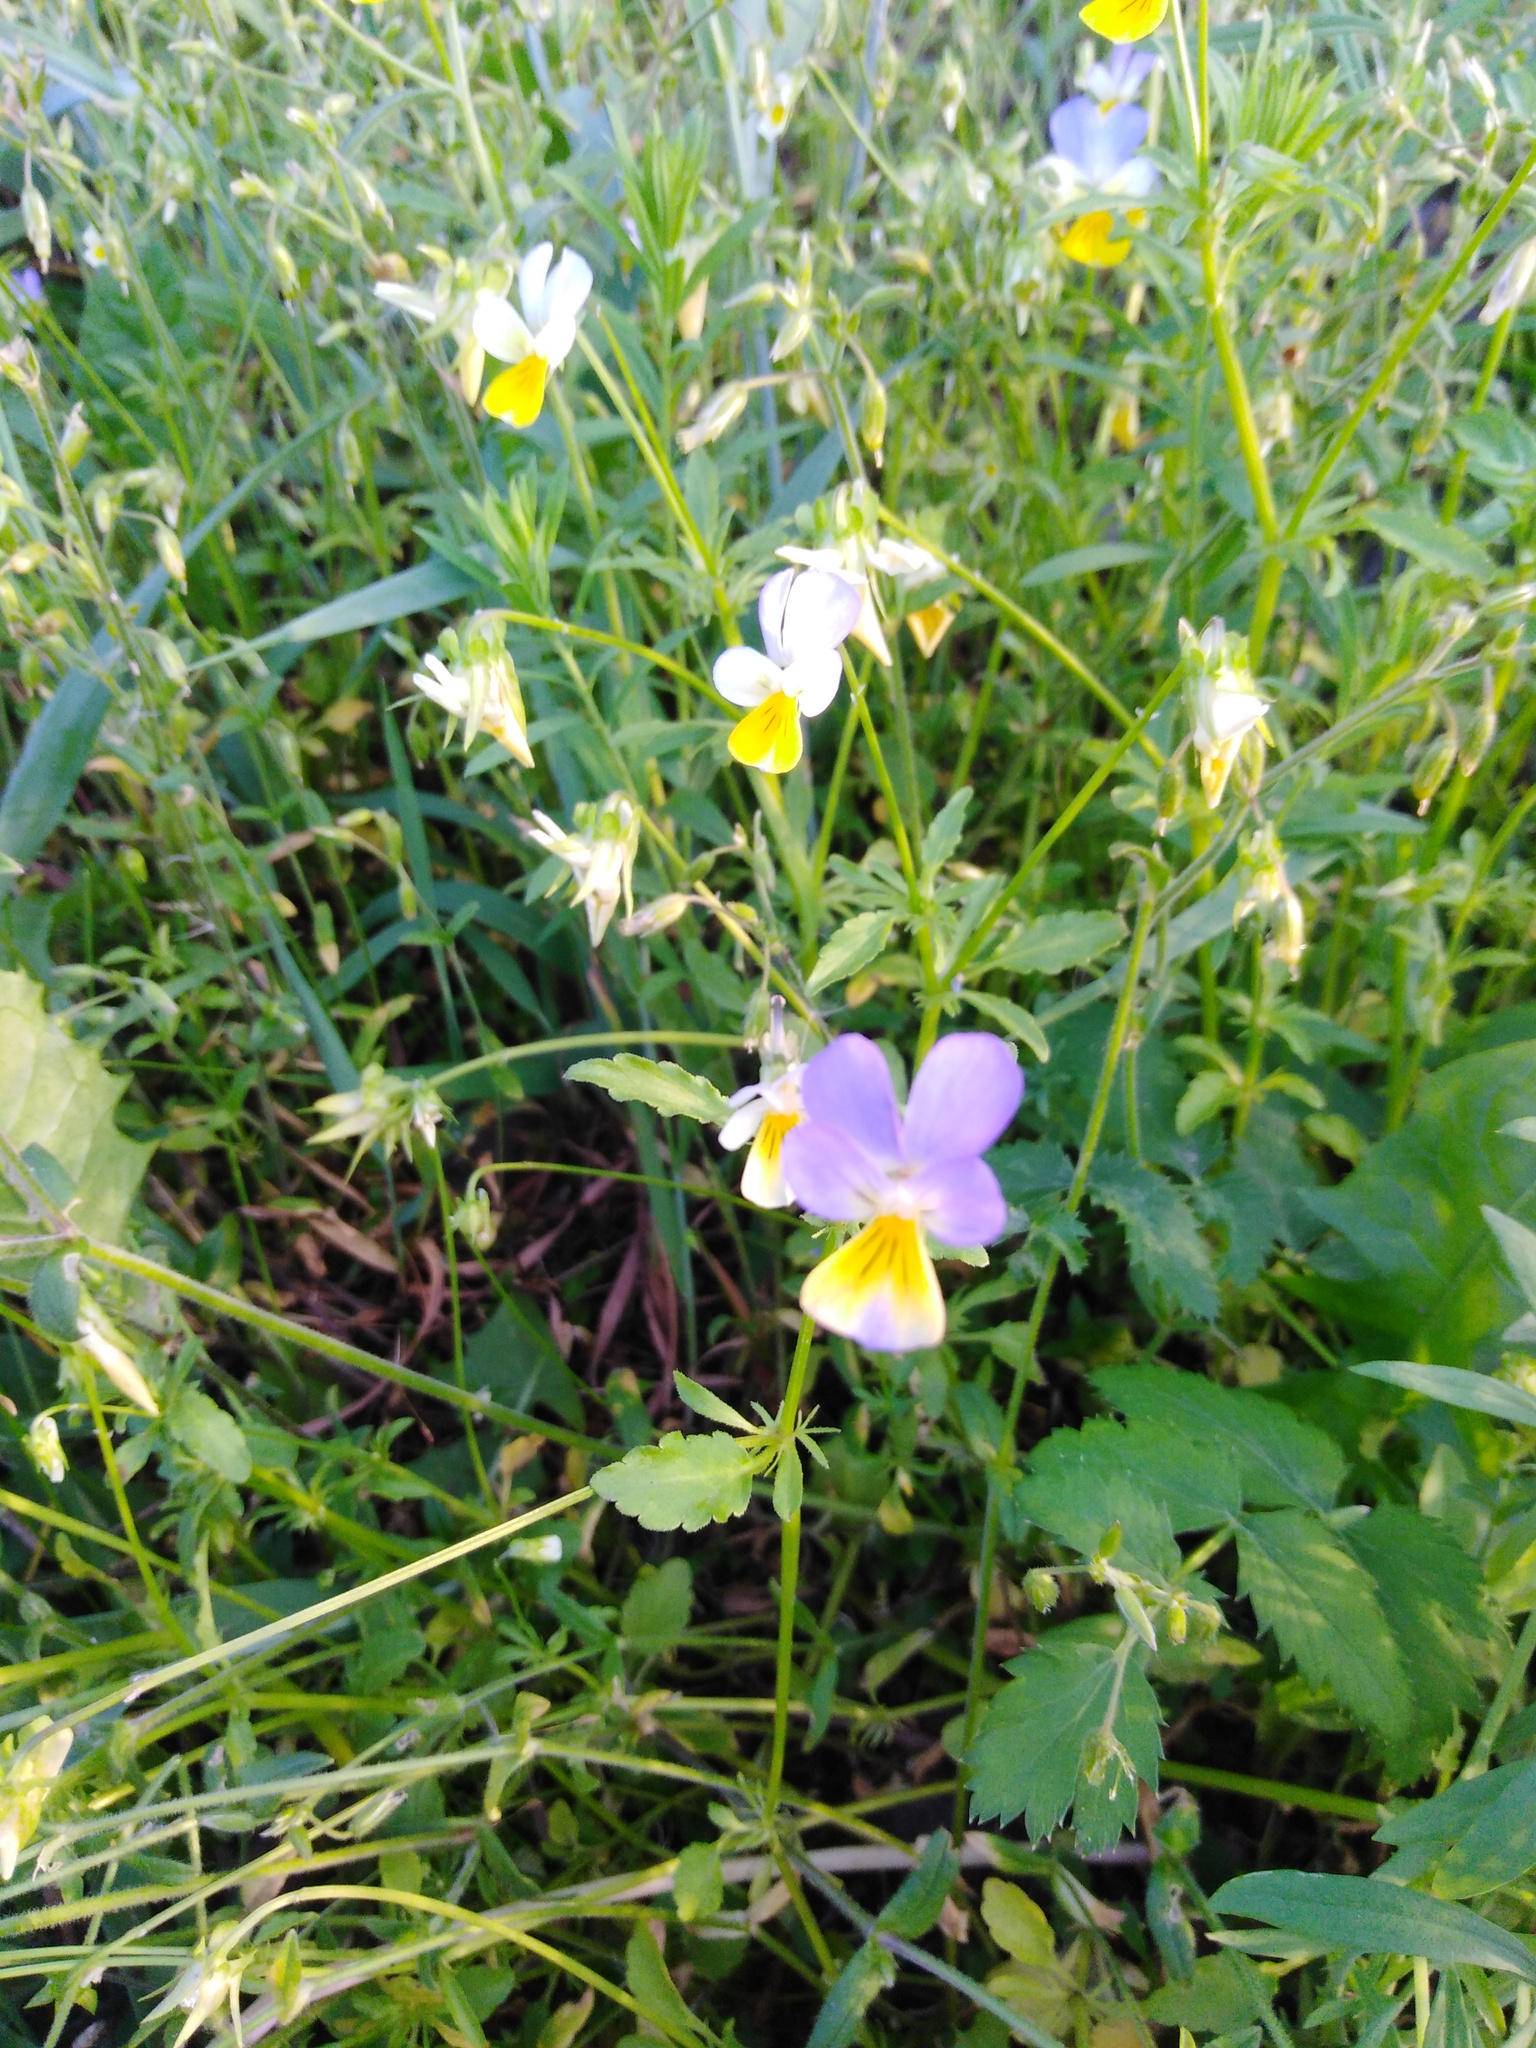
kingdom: Plantae
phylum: Tracheophyta
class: Magnoliopsida
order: Malpighiales
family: Violaceae
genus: Viola
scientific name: Viola tricolor
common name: Pansy
